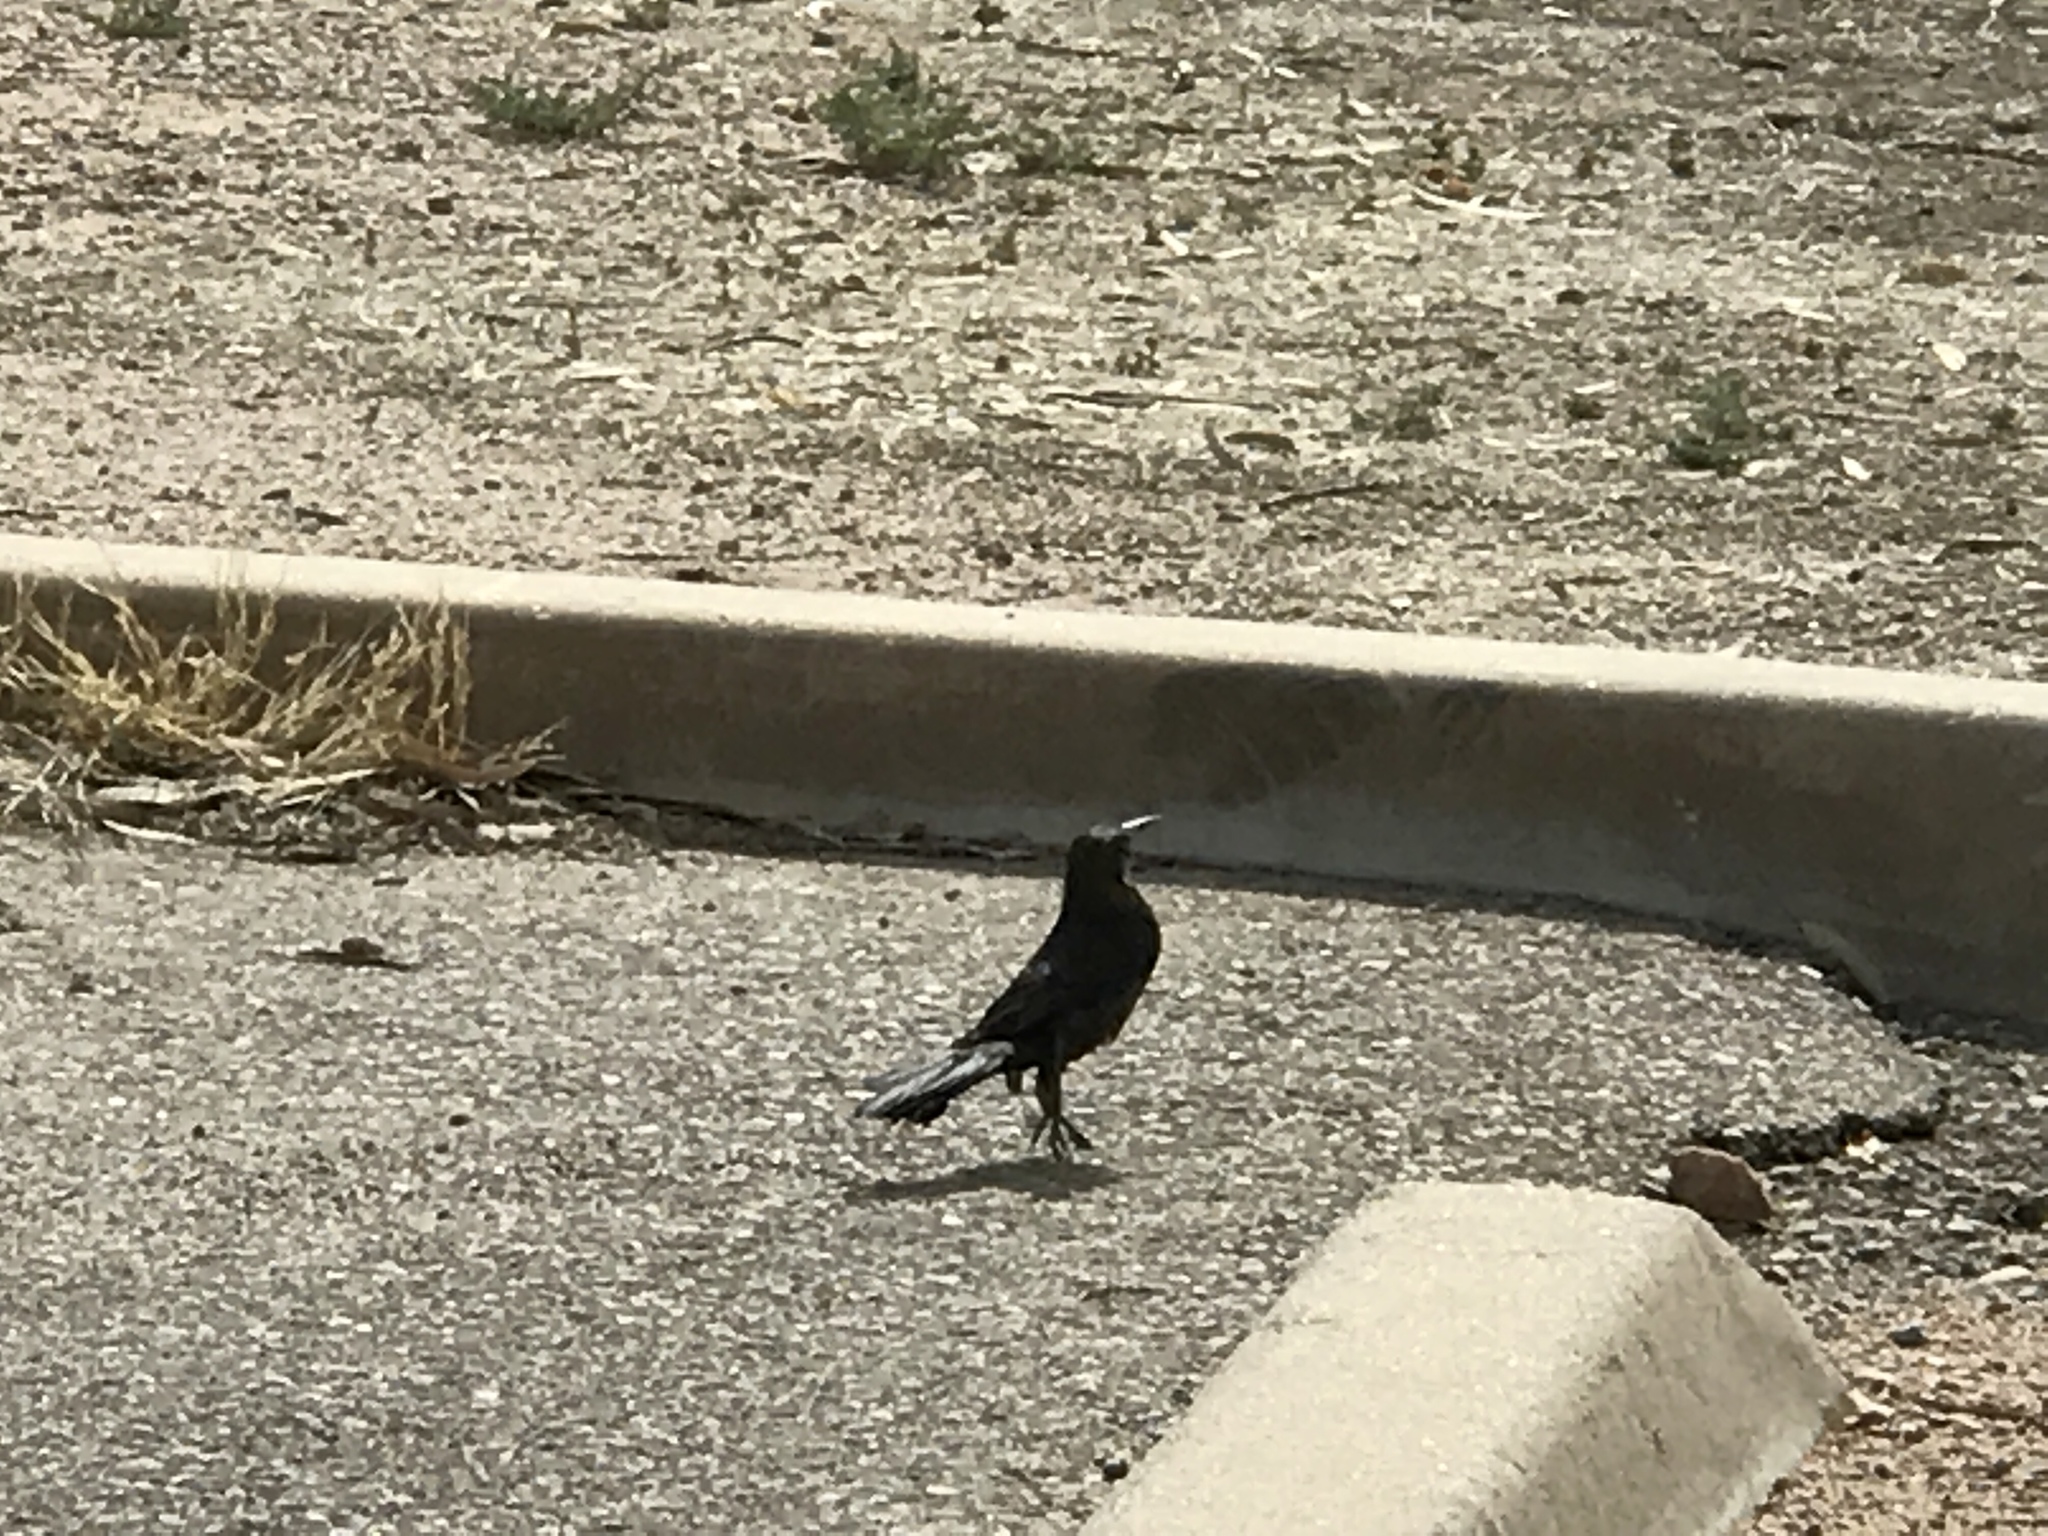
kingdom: Animalia
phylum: Chordata
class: Aves
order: Passeriformes
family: Icteridae
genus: Quiscalus
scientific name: Quiscalus mexicanus
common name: Great-tailed grackle
